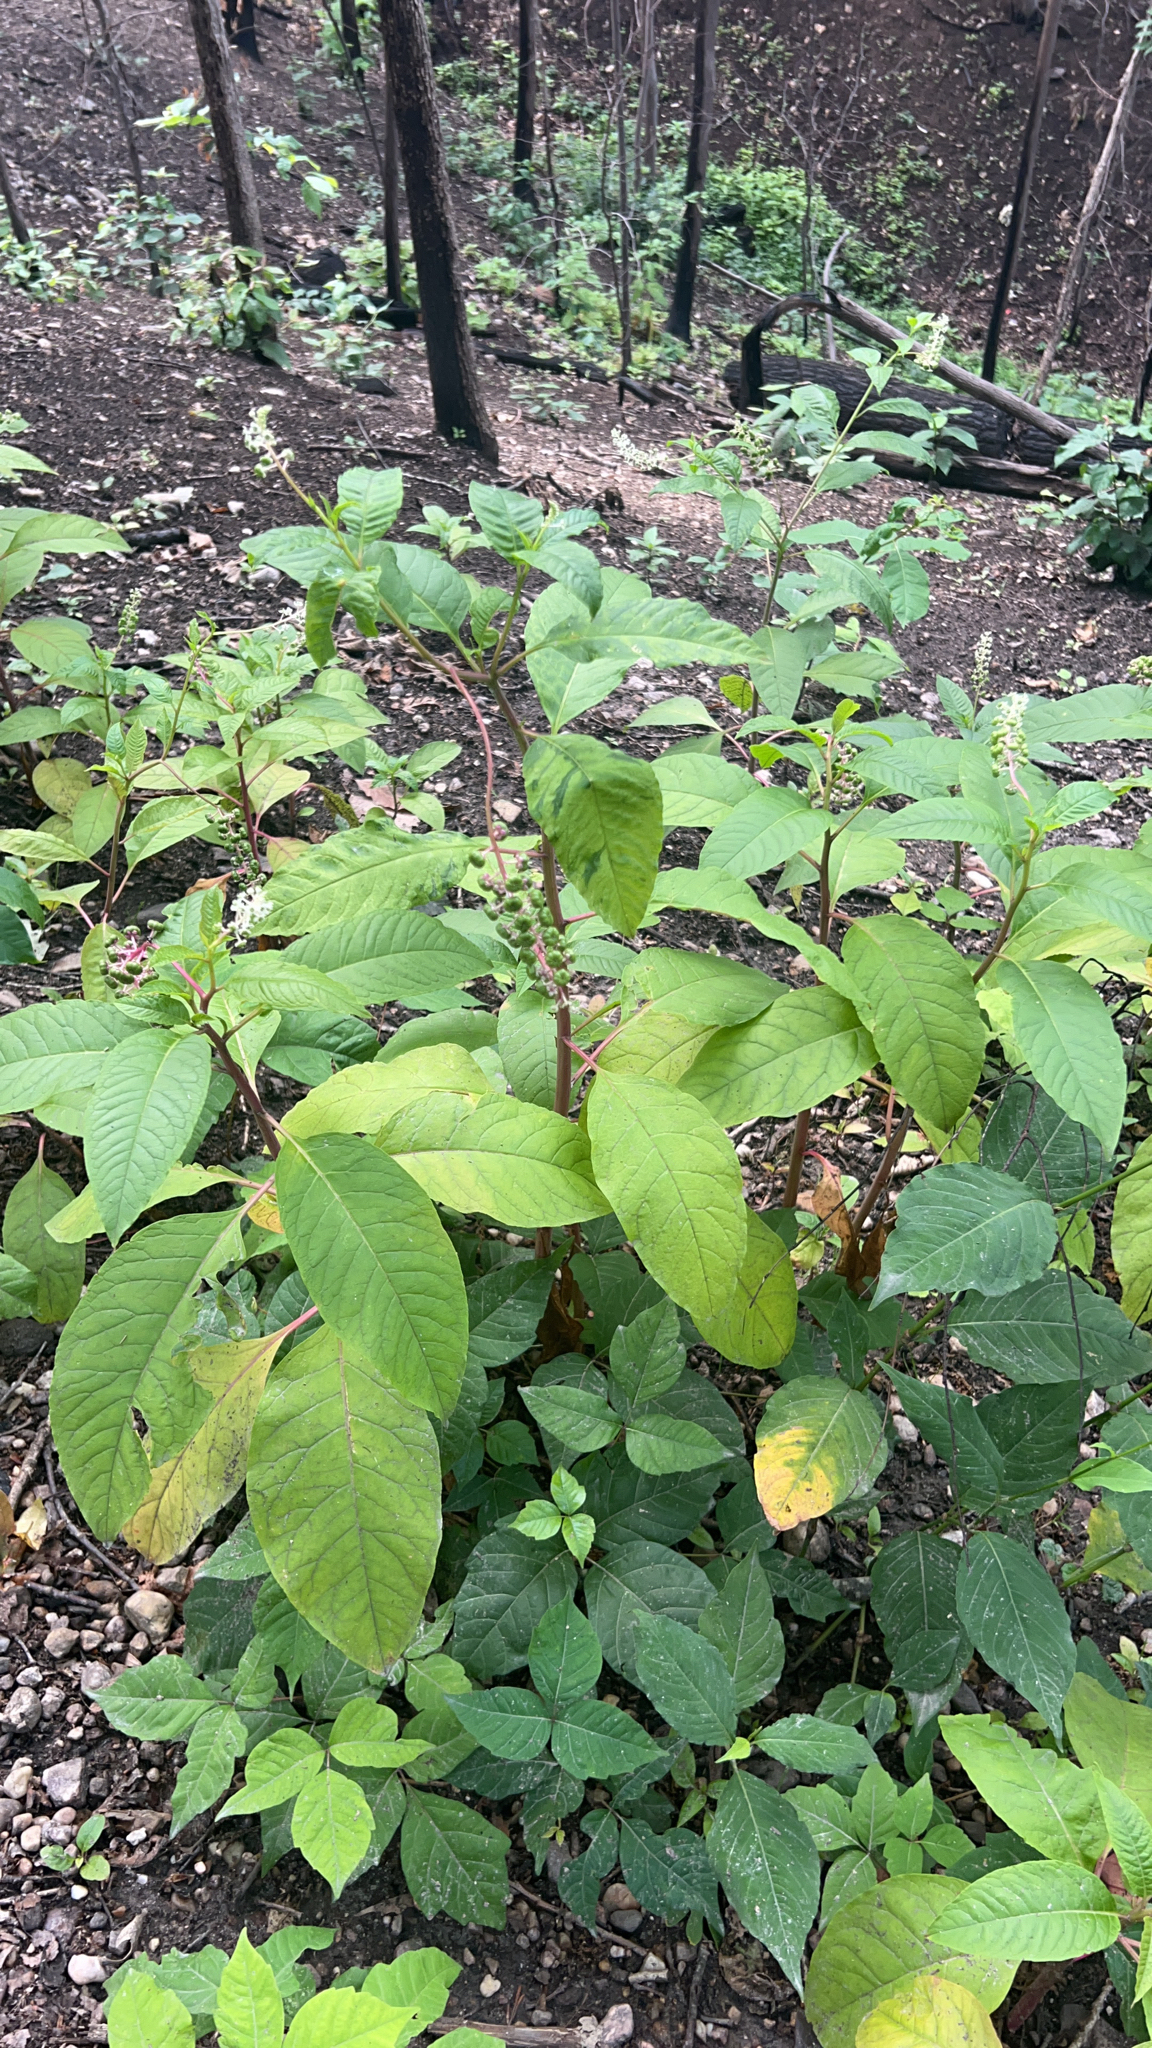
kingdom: Plantae
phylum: Tracheophyta
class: Magnoliopsida
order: Caryophyllales
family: Phytolaccaceae
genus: Phytolacca
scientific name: Phytolacca americana
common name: American pokeweed
